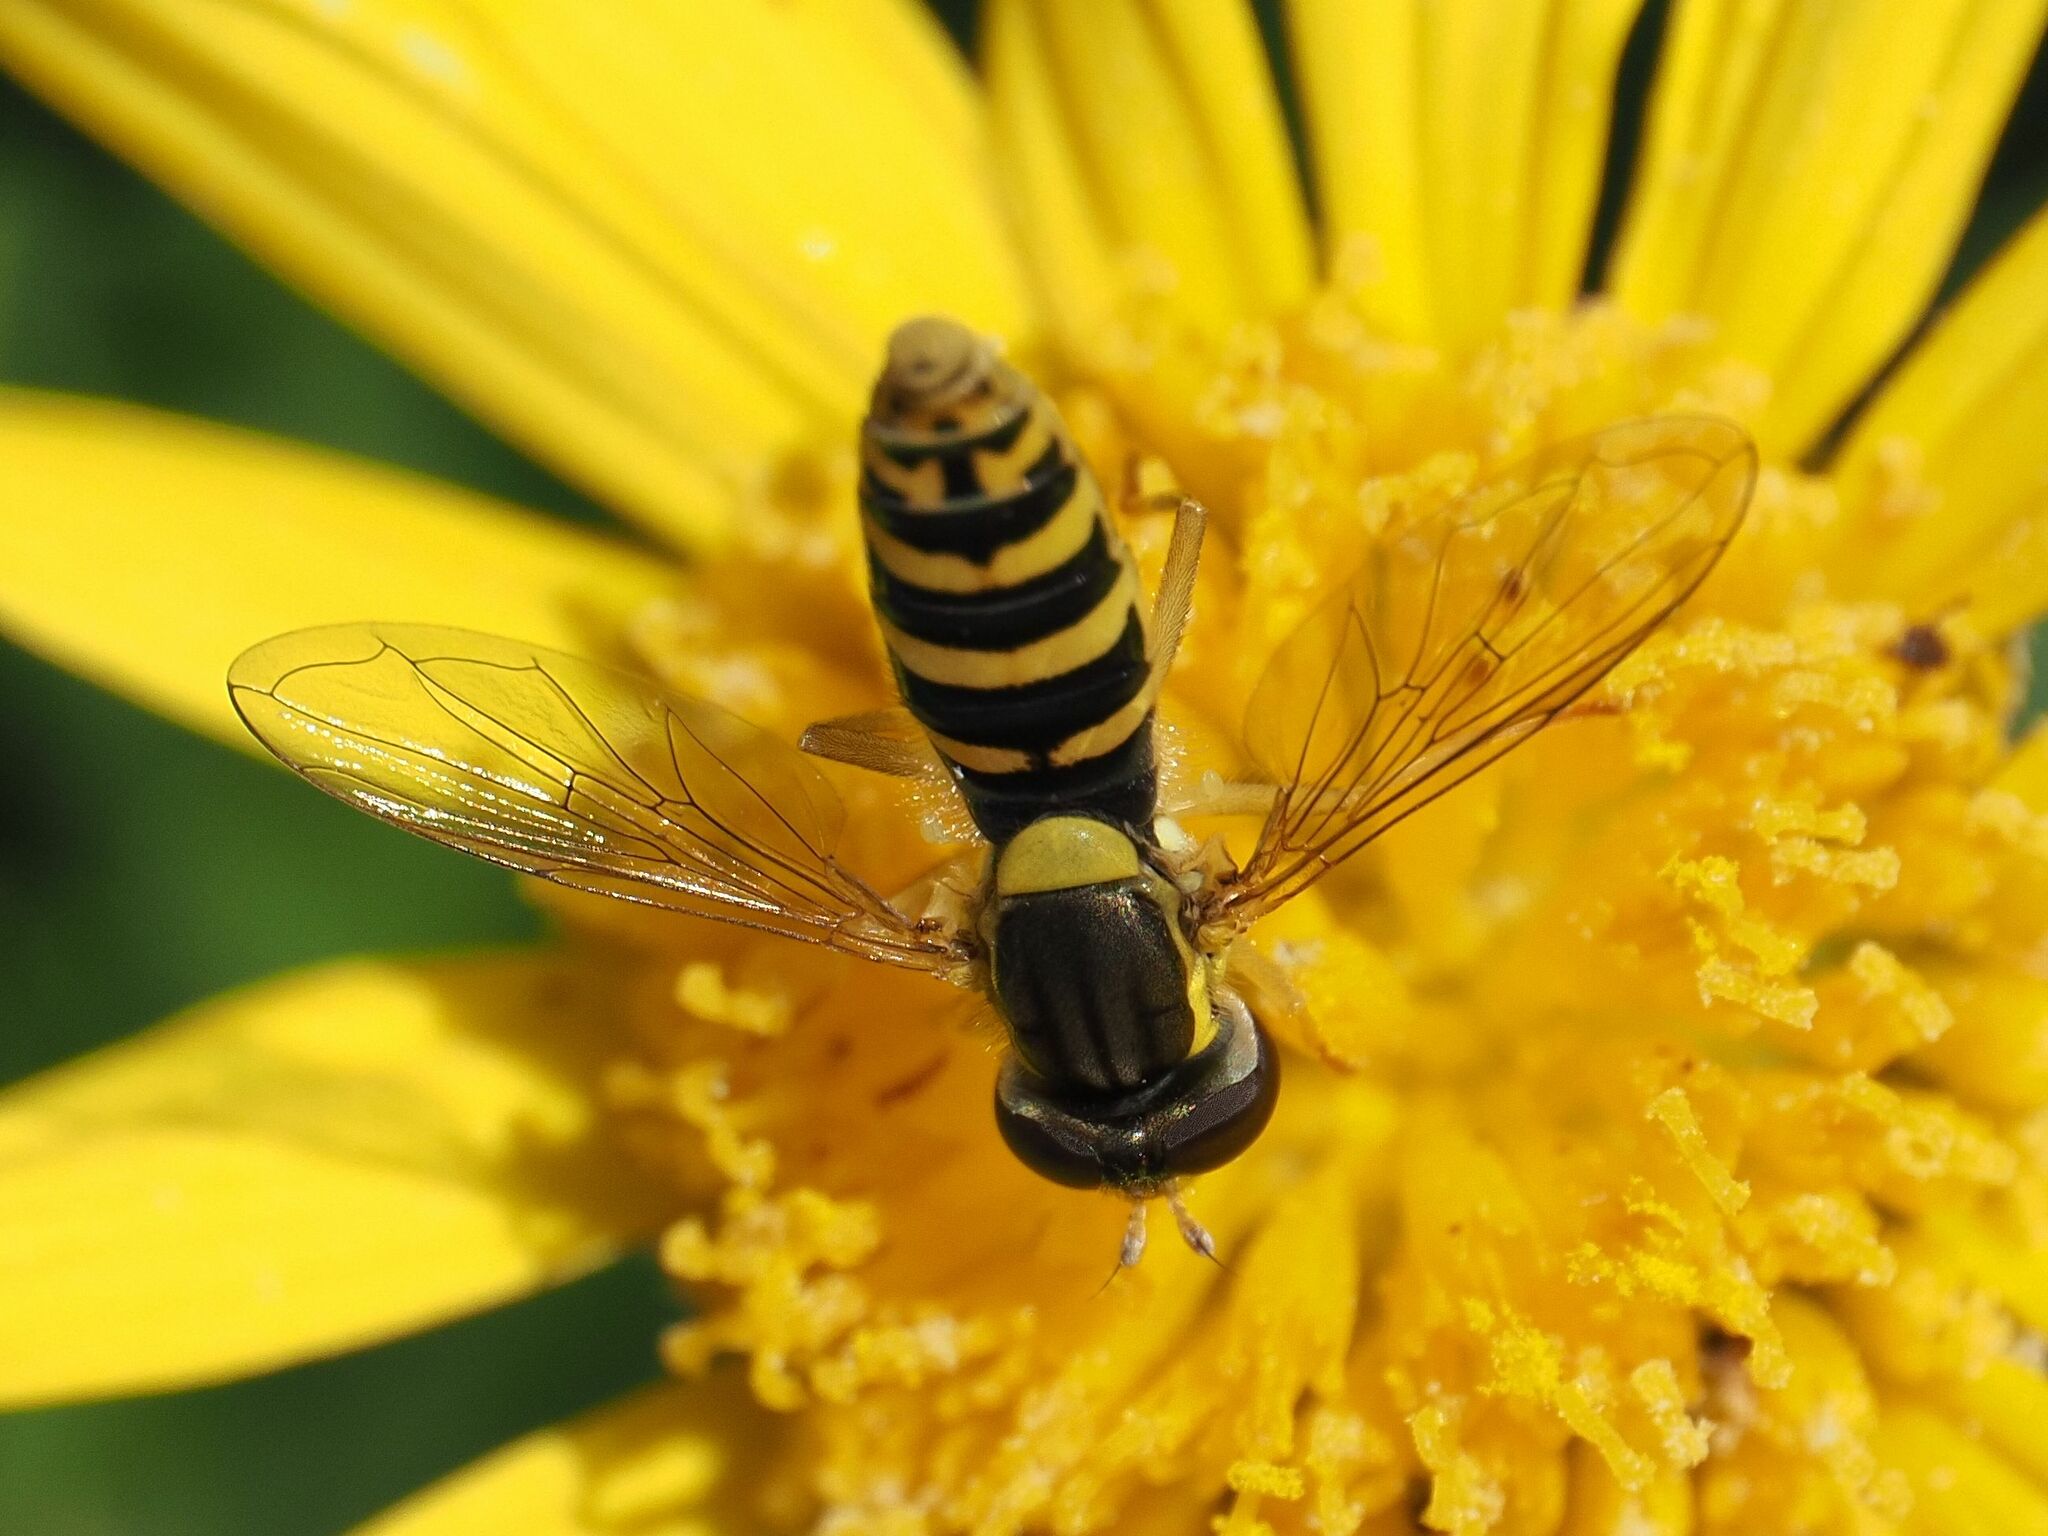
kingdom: Animalia
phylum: Arthropoda
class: Insecta
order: Diptera
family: Syrphidae
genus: Sphaerophoria
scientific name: Sphaerophoria
